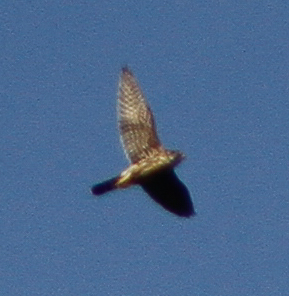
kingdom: Animalia
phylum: Chordata
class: Aves
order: Falconiformes
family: Falconidae
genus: Falco
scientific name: Falco columbarius
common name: Merlin
